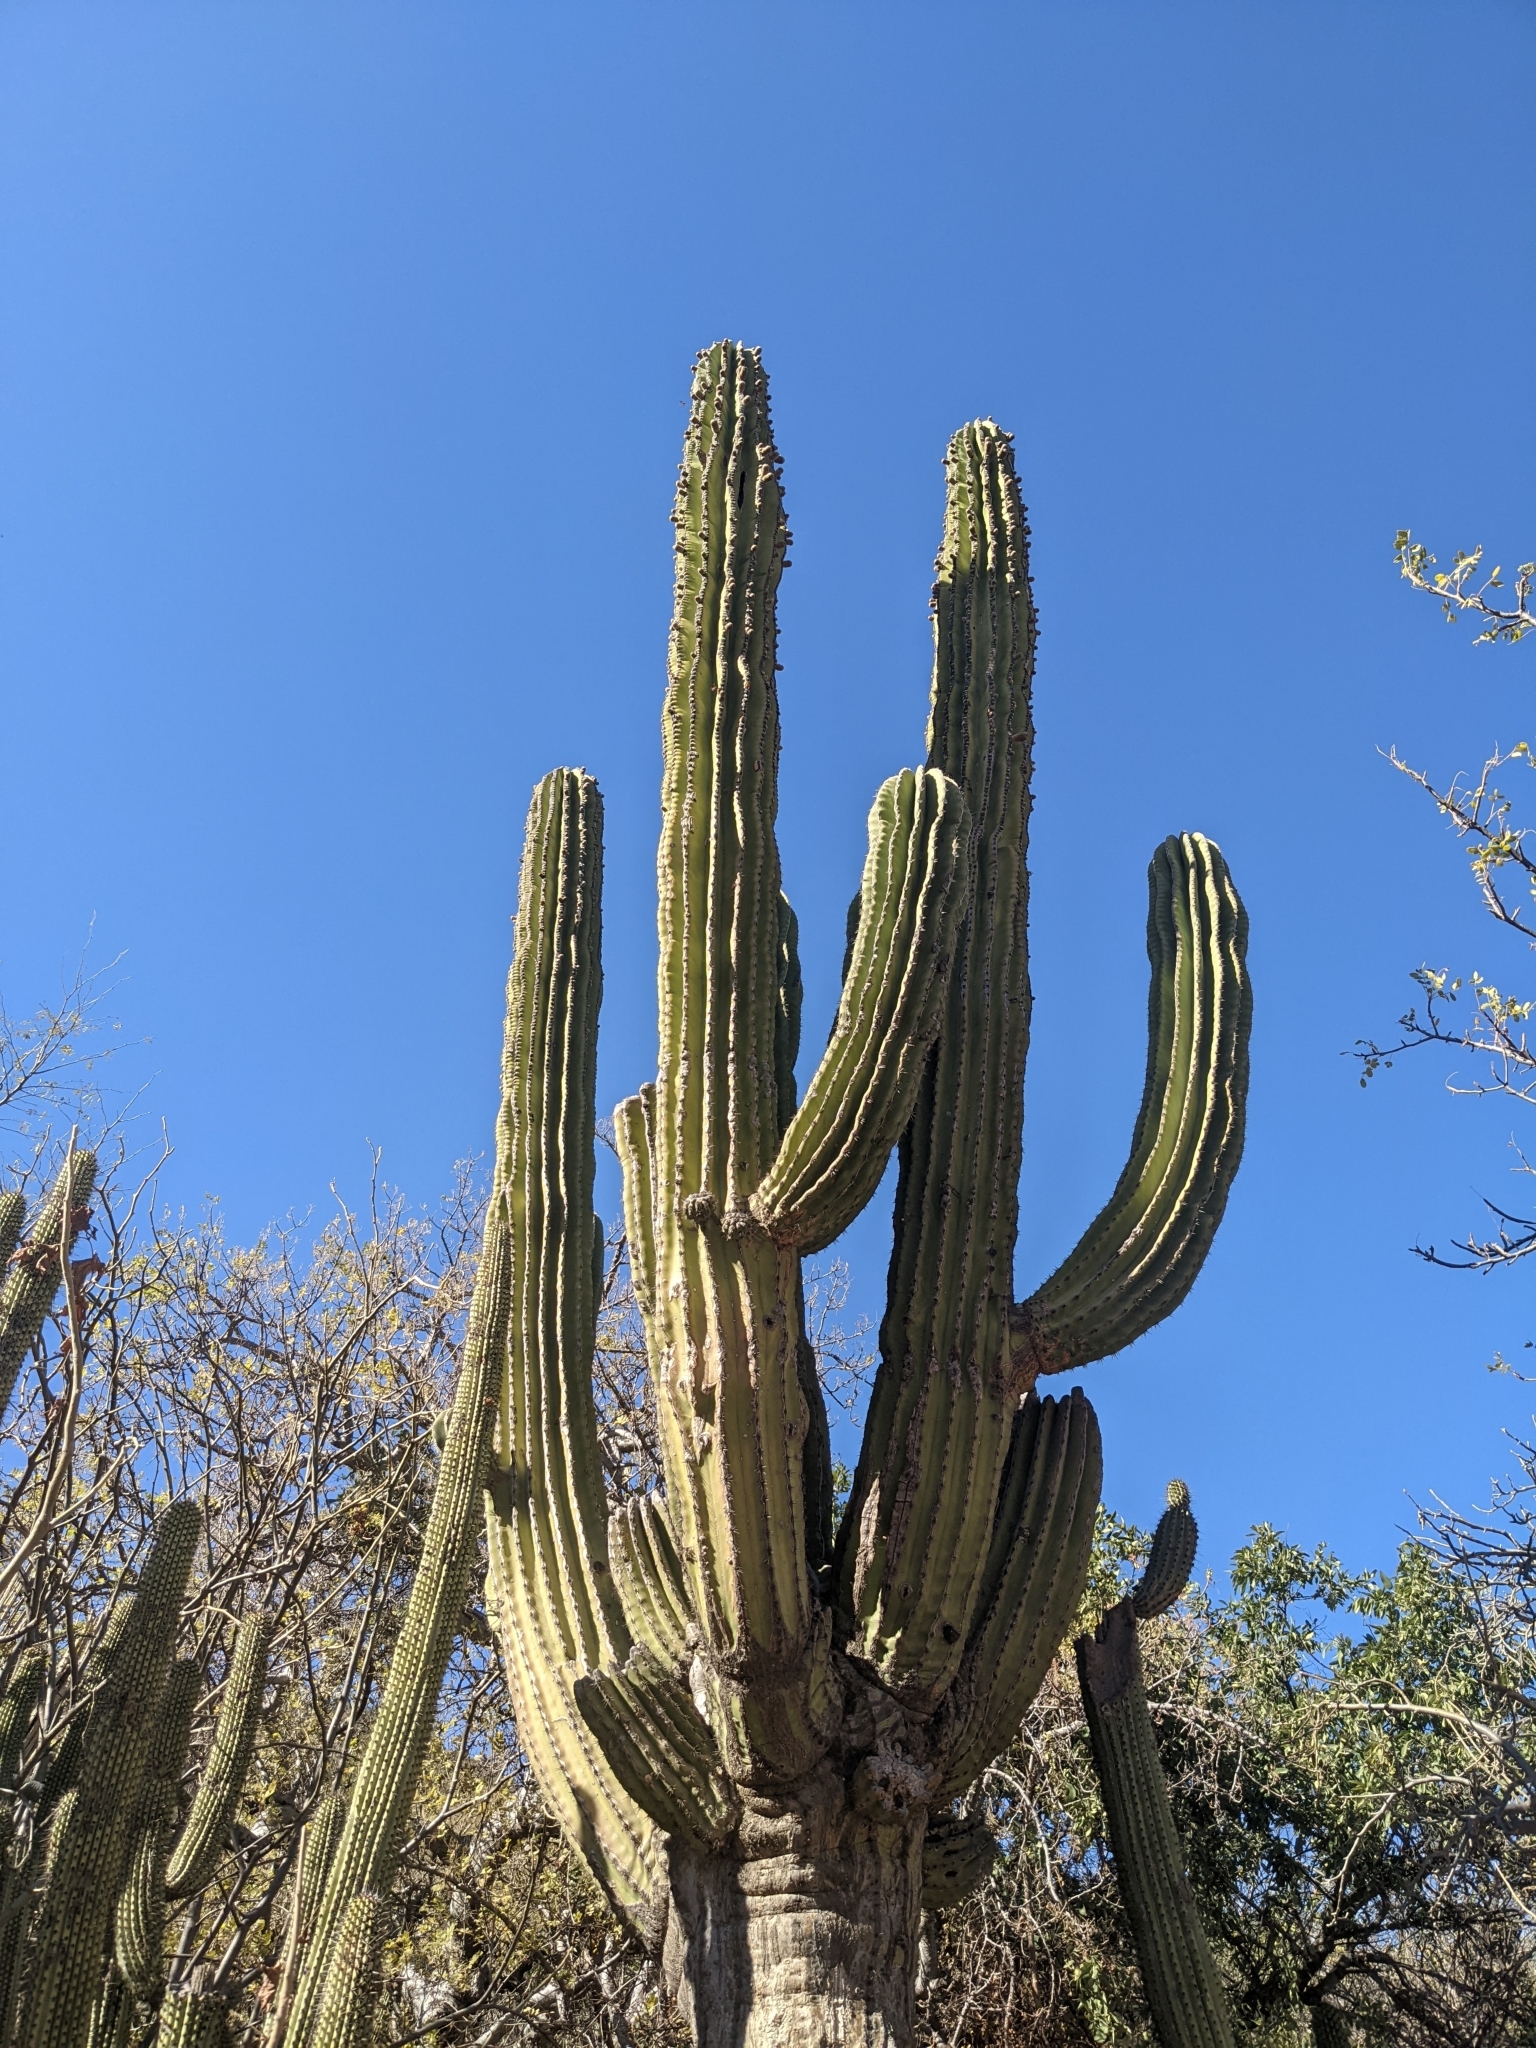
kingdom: Plantae
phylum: Tracheophyta
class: Magnoliopsida
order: Caryophyllales
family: Cactaceae
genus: Pachycereus
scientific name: Pachycereus pringlei
